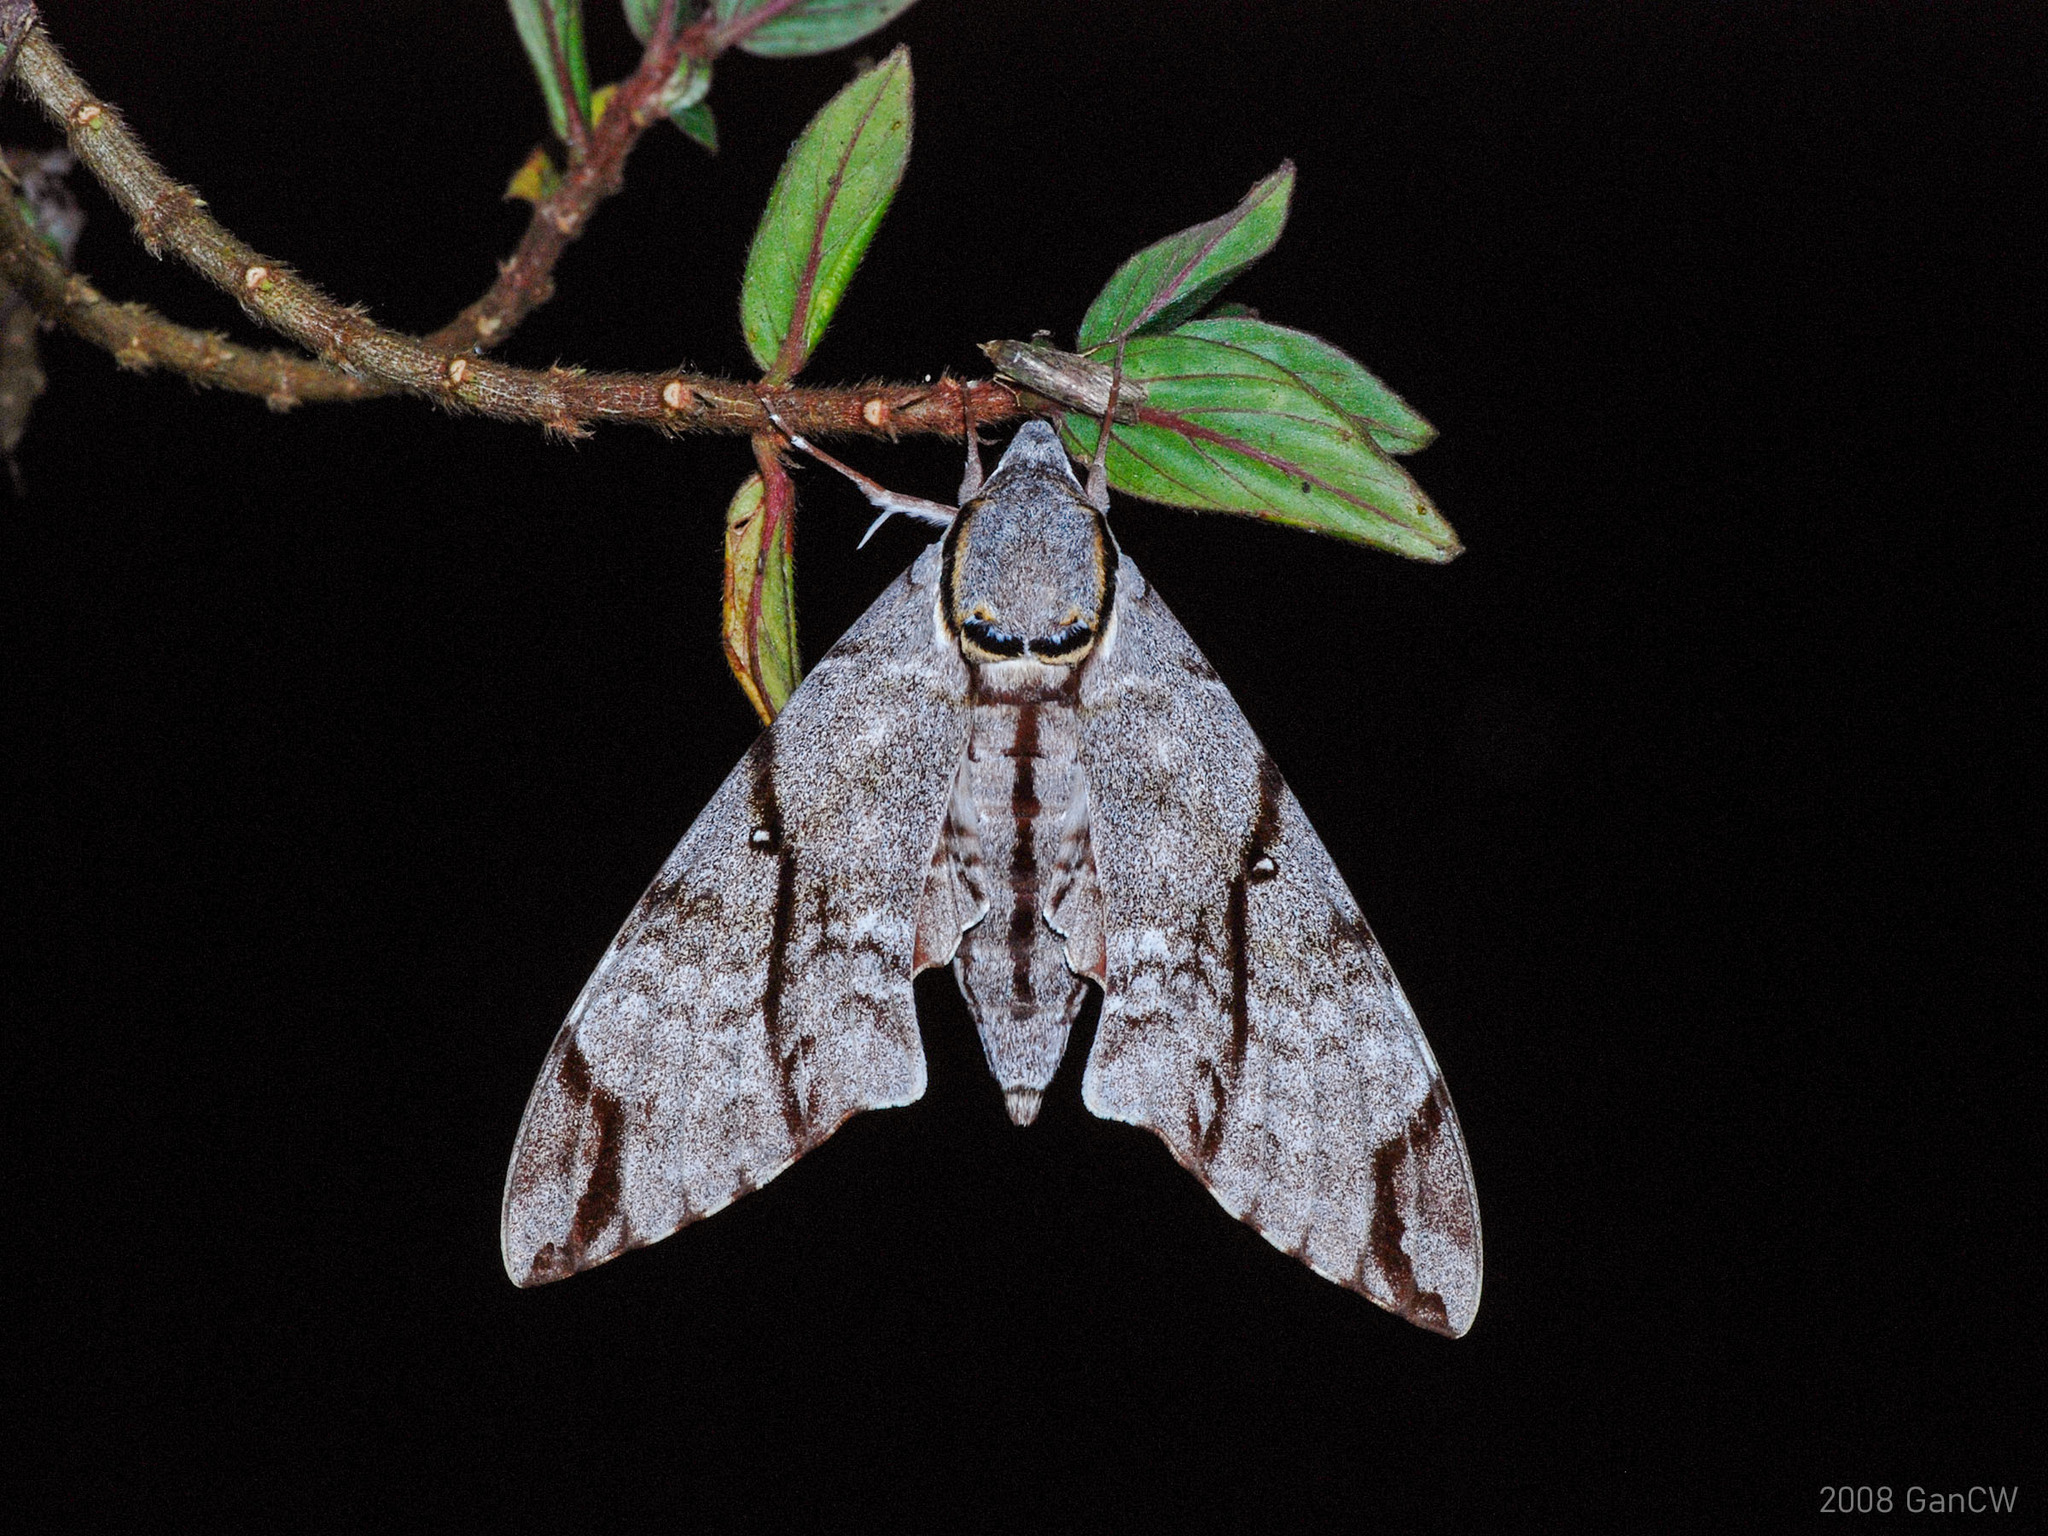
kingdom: Animalia
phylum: Arthropoda
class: Insecta
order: Lepidoptera
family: Sphingidae
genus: Notonagemia
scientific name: Notonagemia analis
